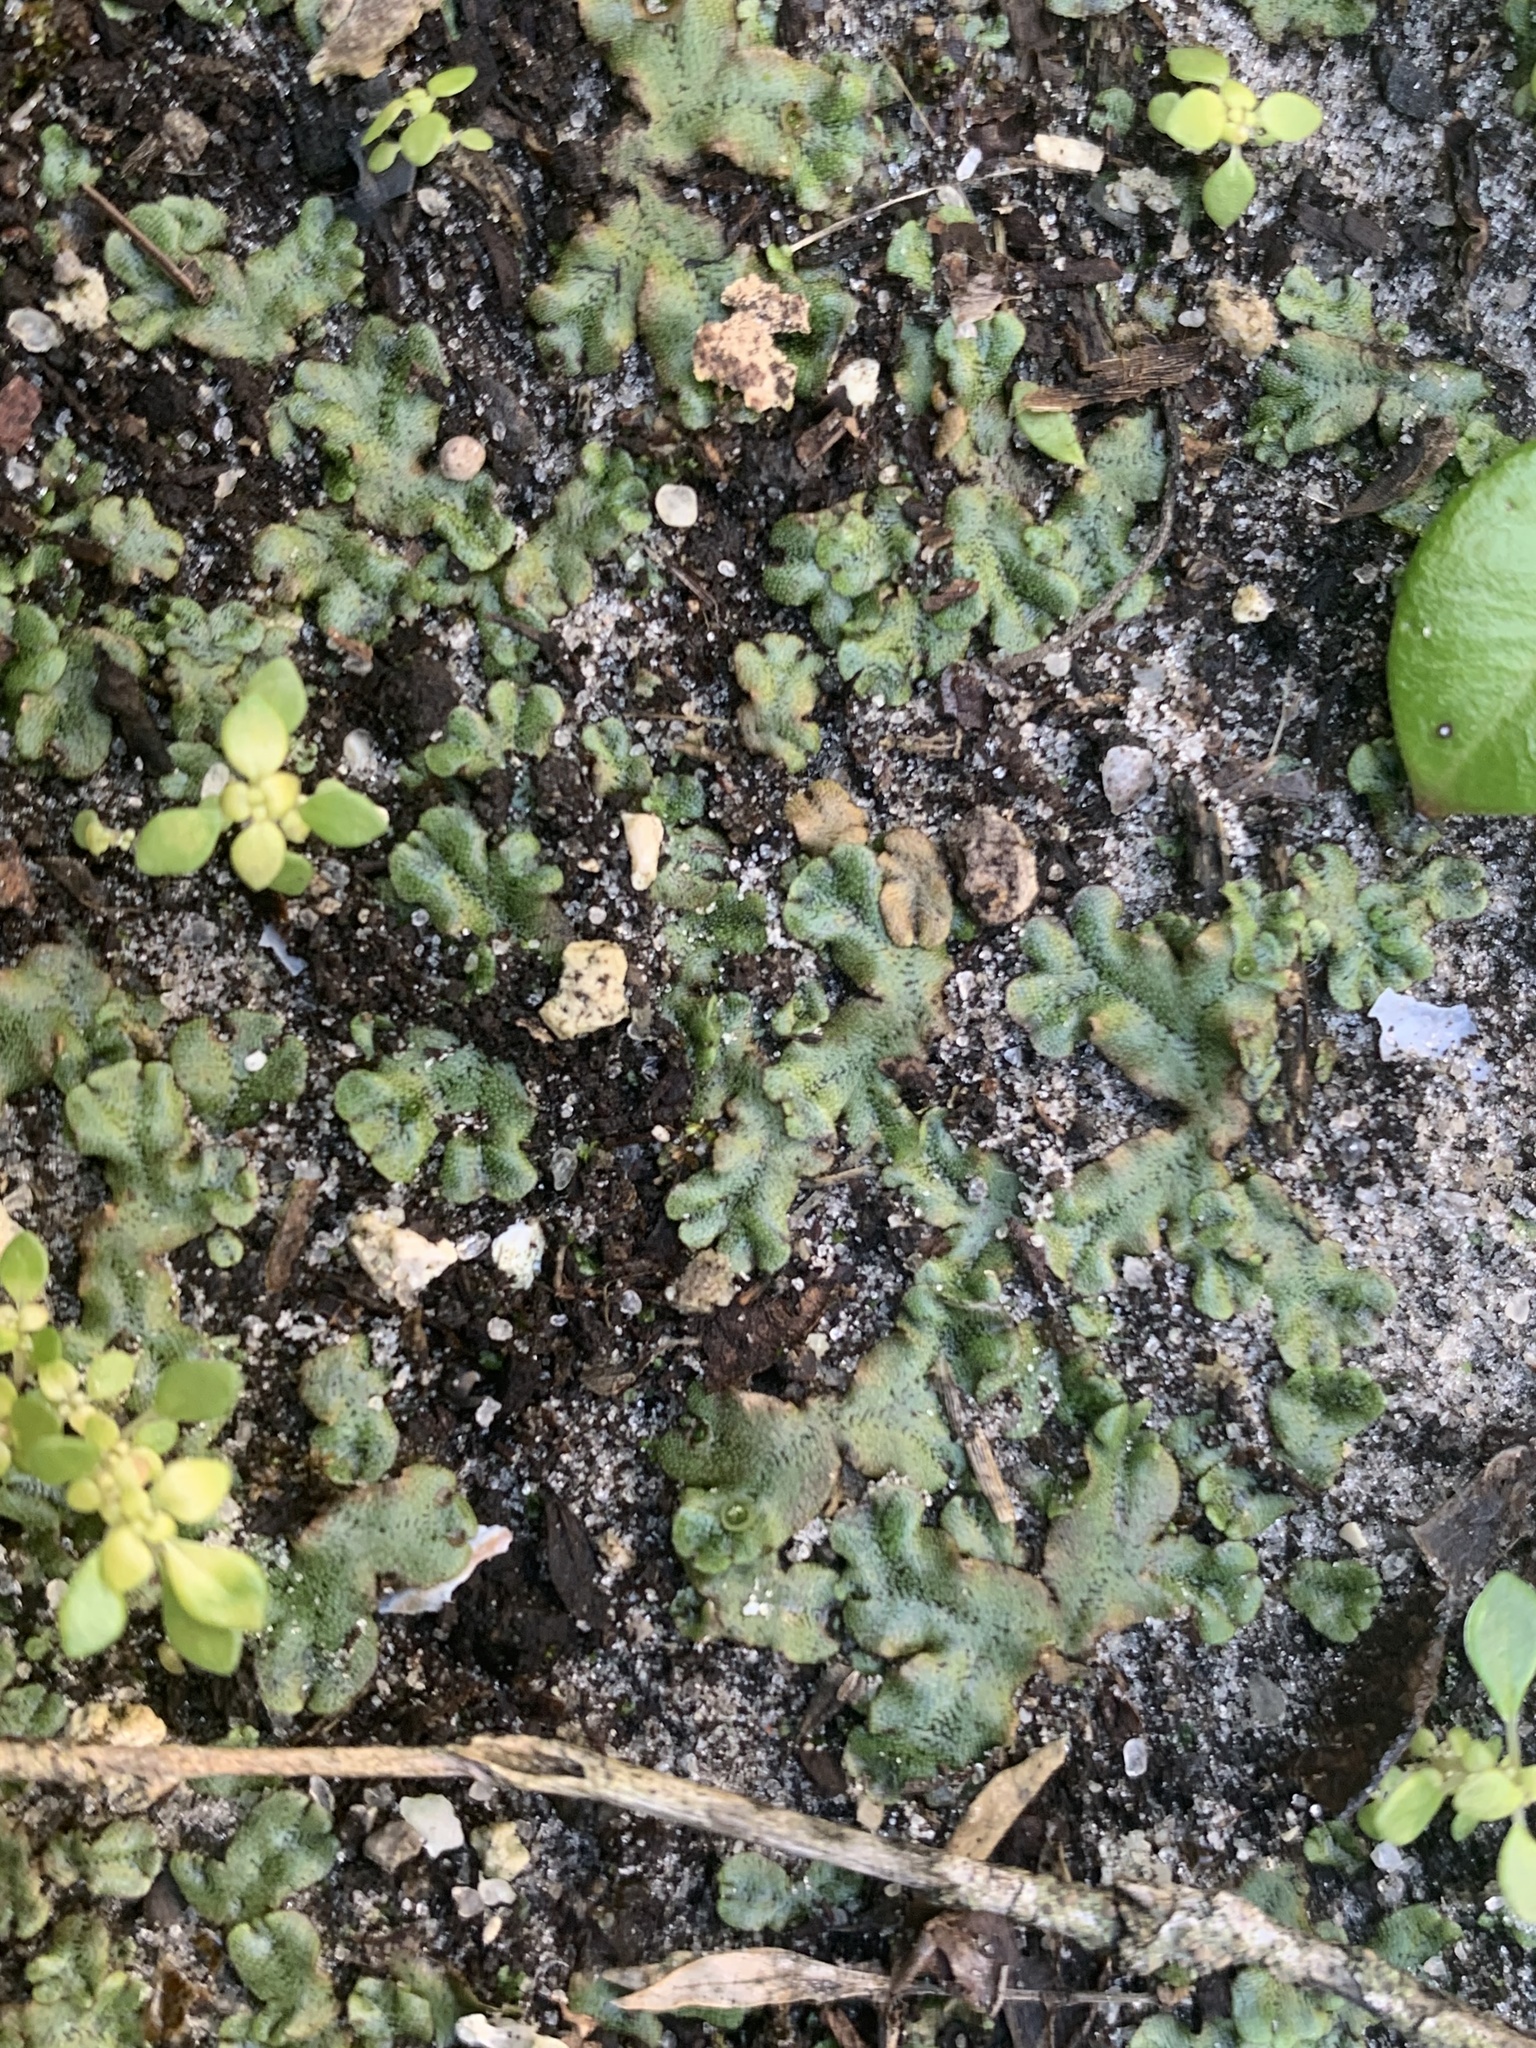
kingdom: Plantae
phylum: Marchantiophyta
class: Marchantiopsida
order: Marchantiales
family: Marchantiaceae
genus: Marchantia
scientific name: Marchantia polymorpha
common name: Common liverwort
